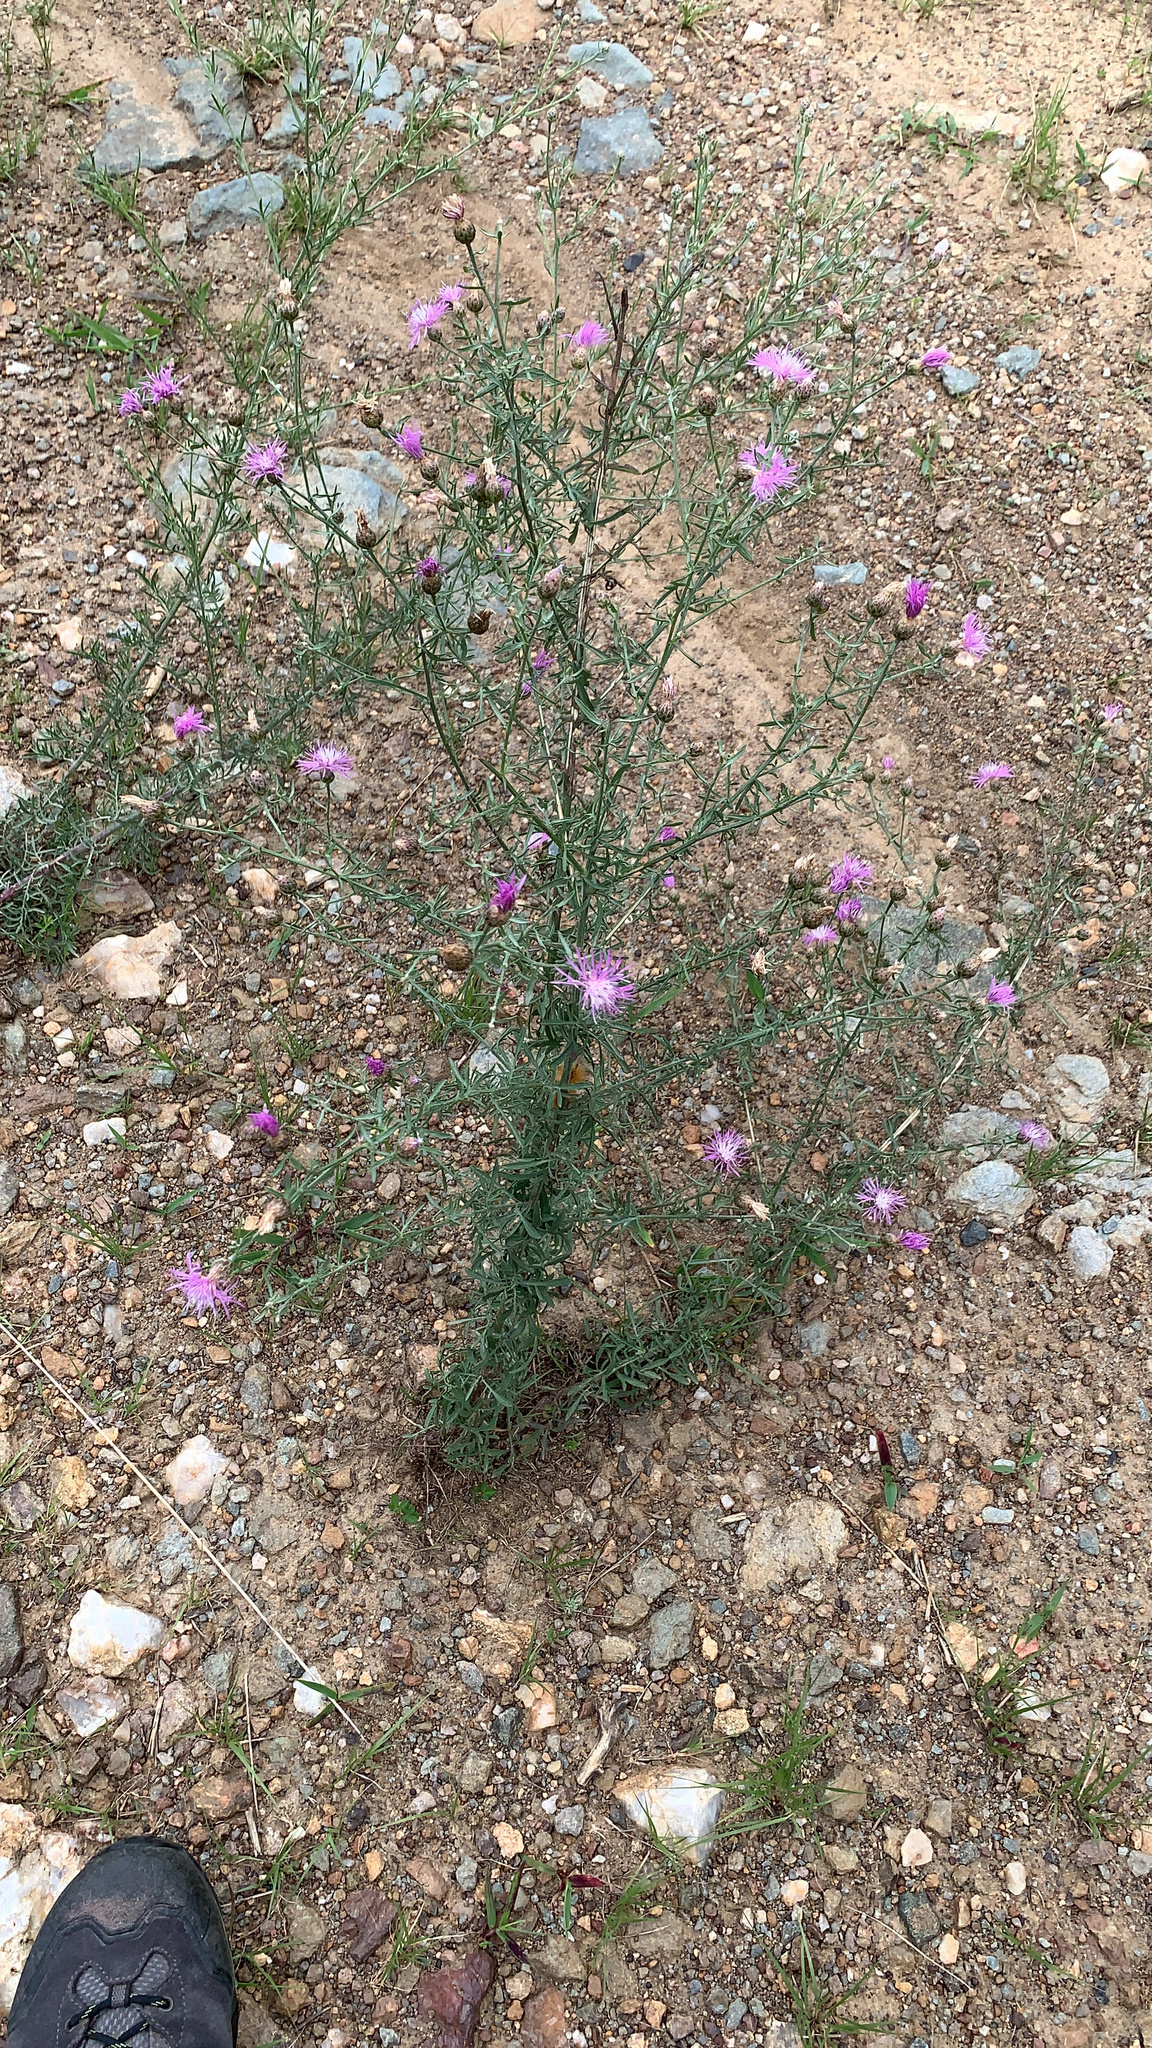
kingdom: Plantae
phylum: Tracheophyta
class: Magnoliopsida
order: Asterales
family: Asteraceae
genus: Centaurea
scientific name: Centaurea stoebe
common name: Spotted knapweed
